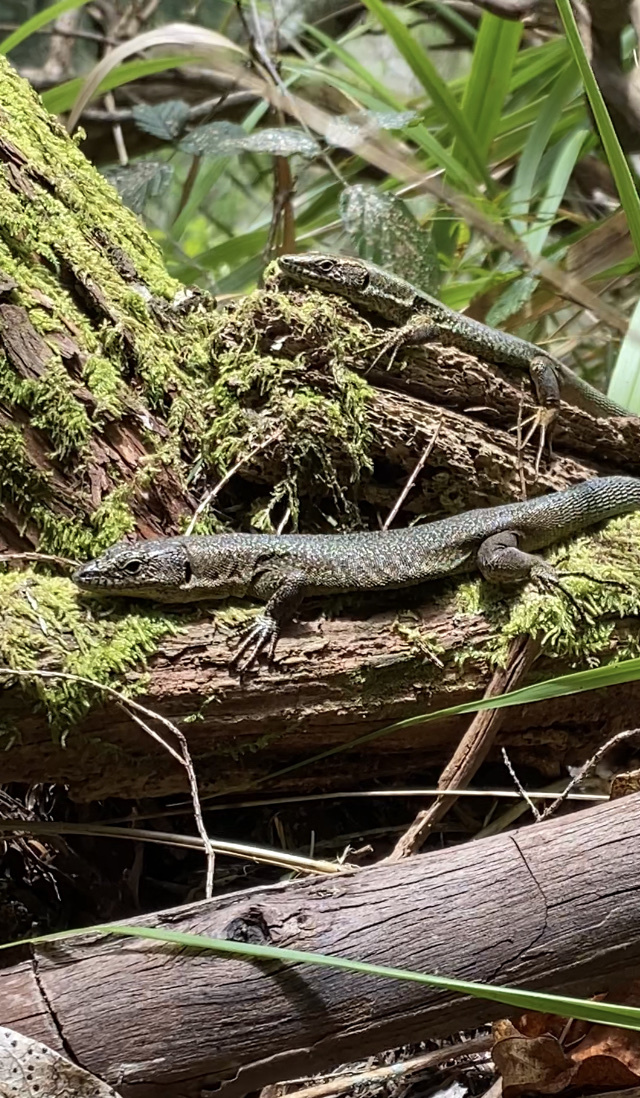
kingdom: Animalia
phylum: Chordata
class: Squamata
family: Lacertidae
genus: Teira
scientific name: Teira dugesii
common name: Madeira lizard
